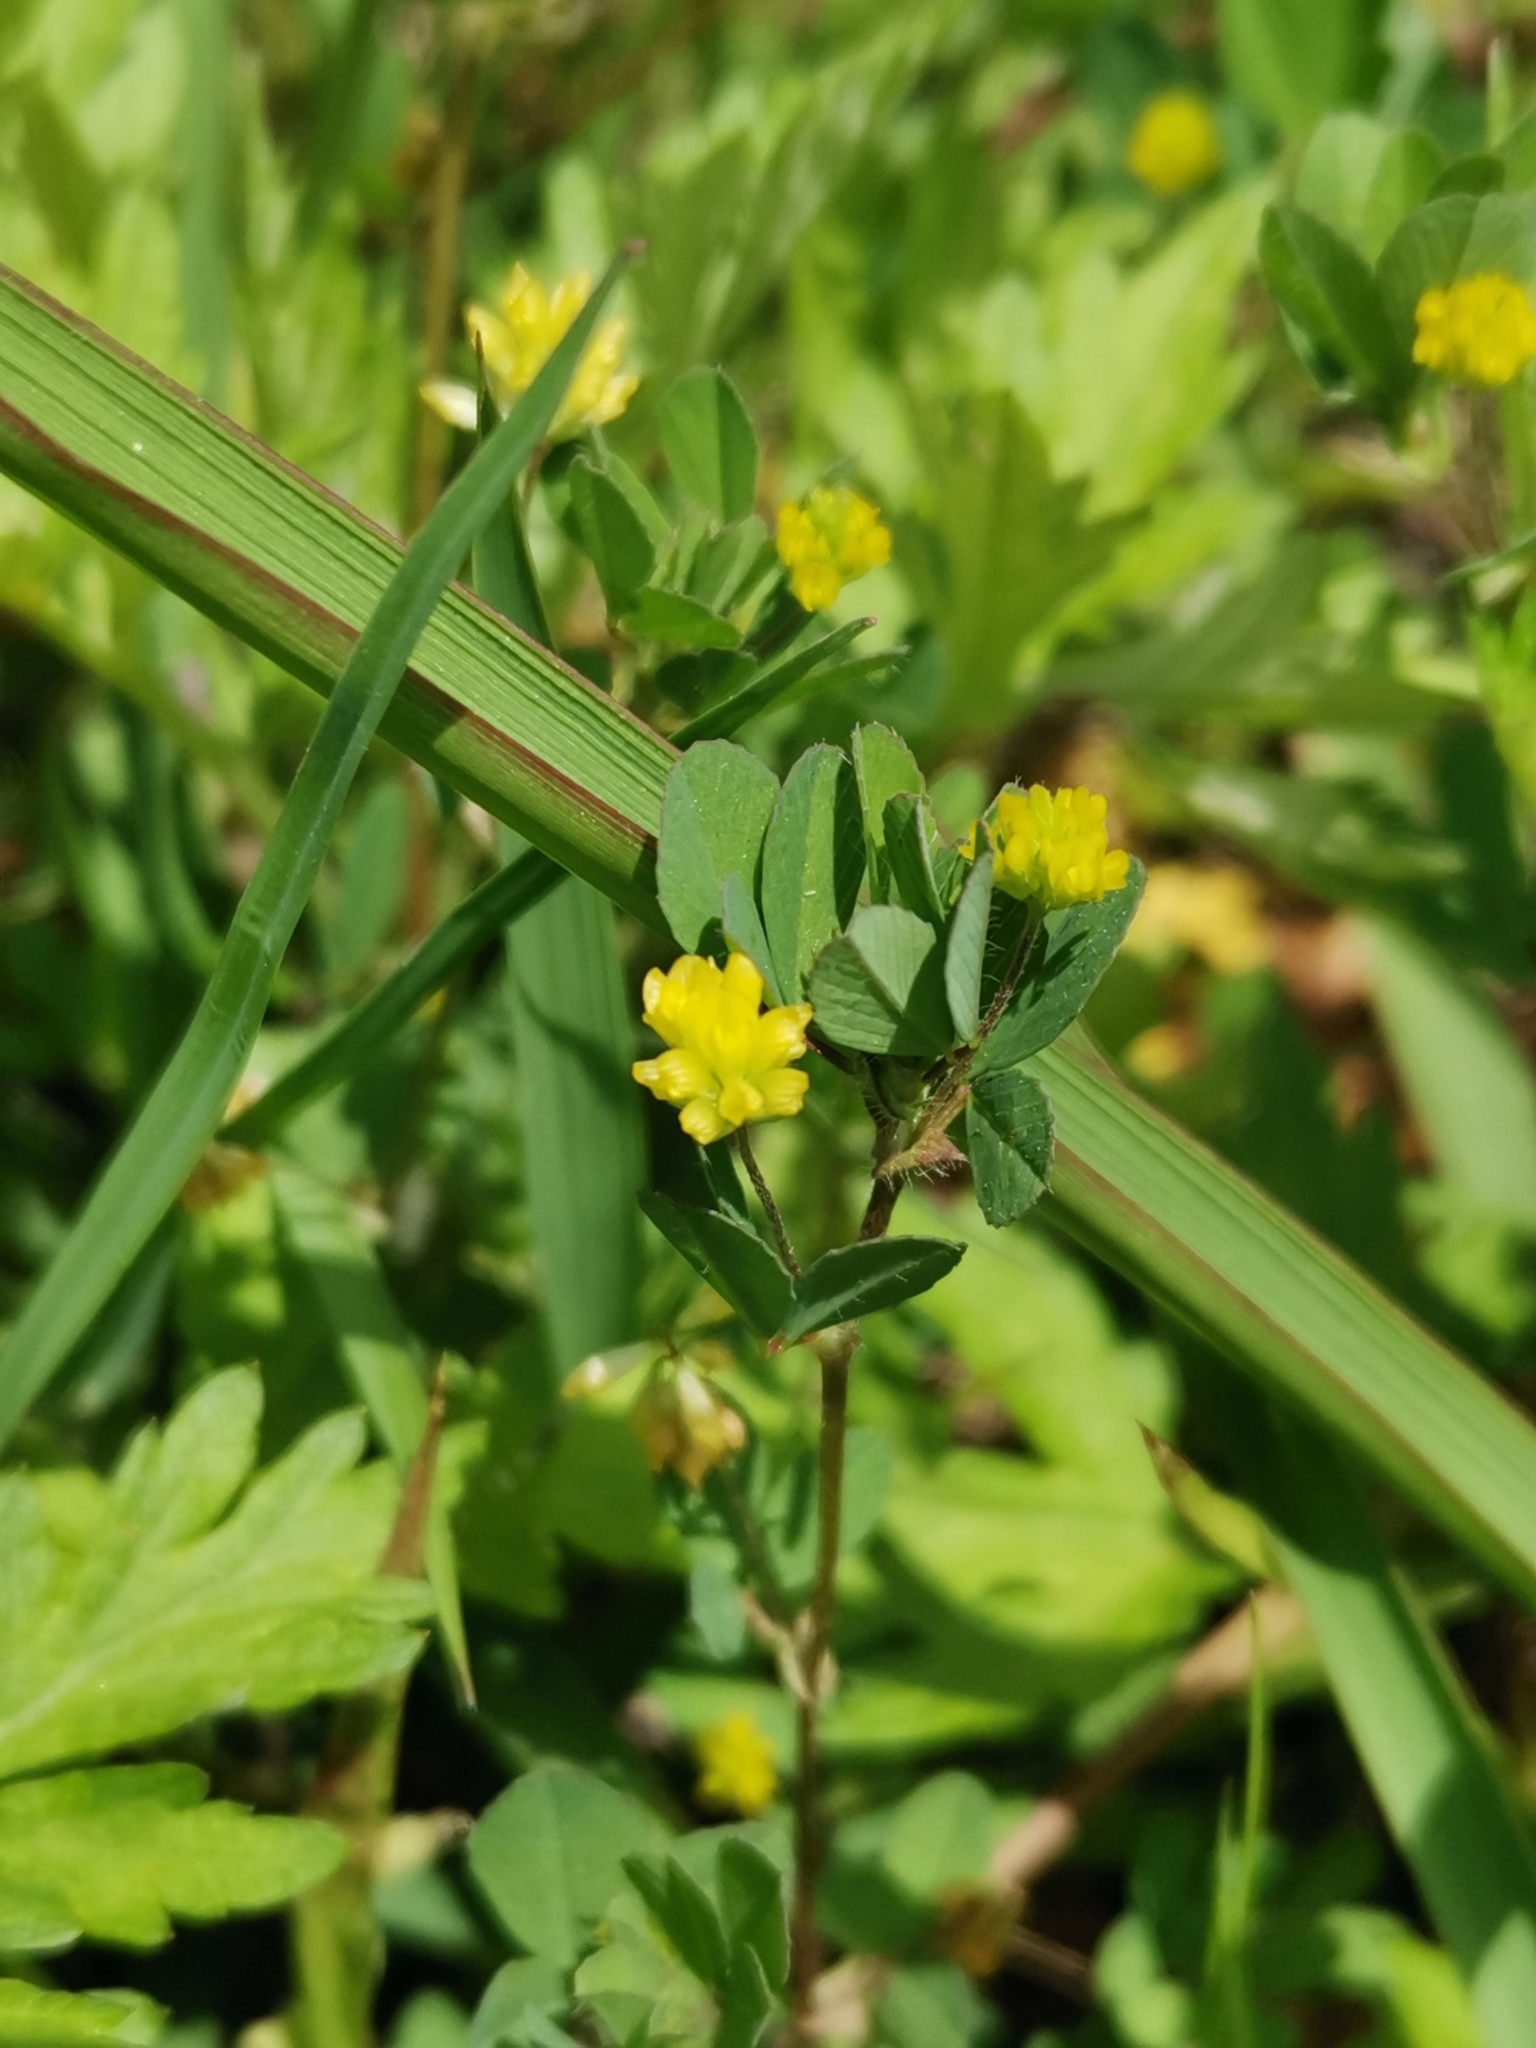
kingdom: Plantae
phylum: Tracheophyta
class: Magnoliopsida
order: Fabales
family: Fabaceae
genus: Trifolium
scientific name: Trifolium dubium
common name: Suckling clover
